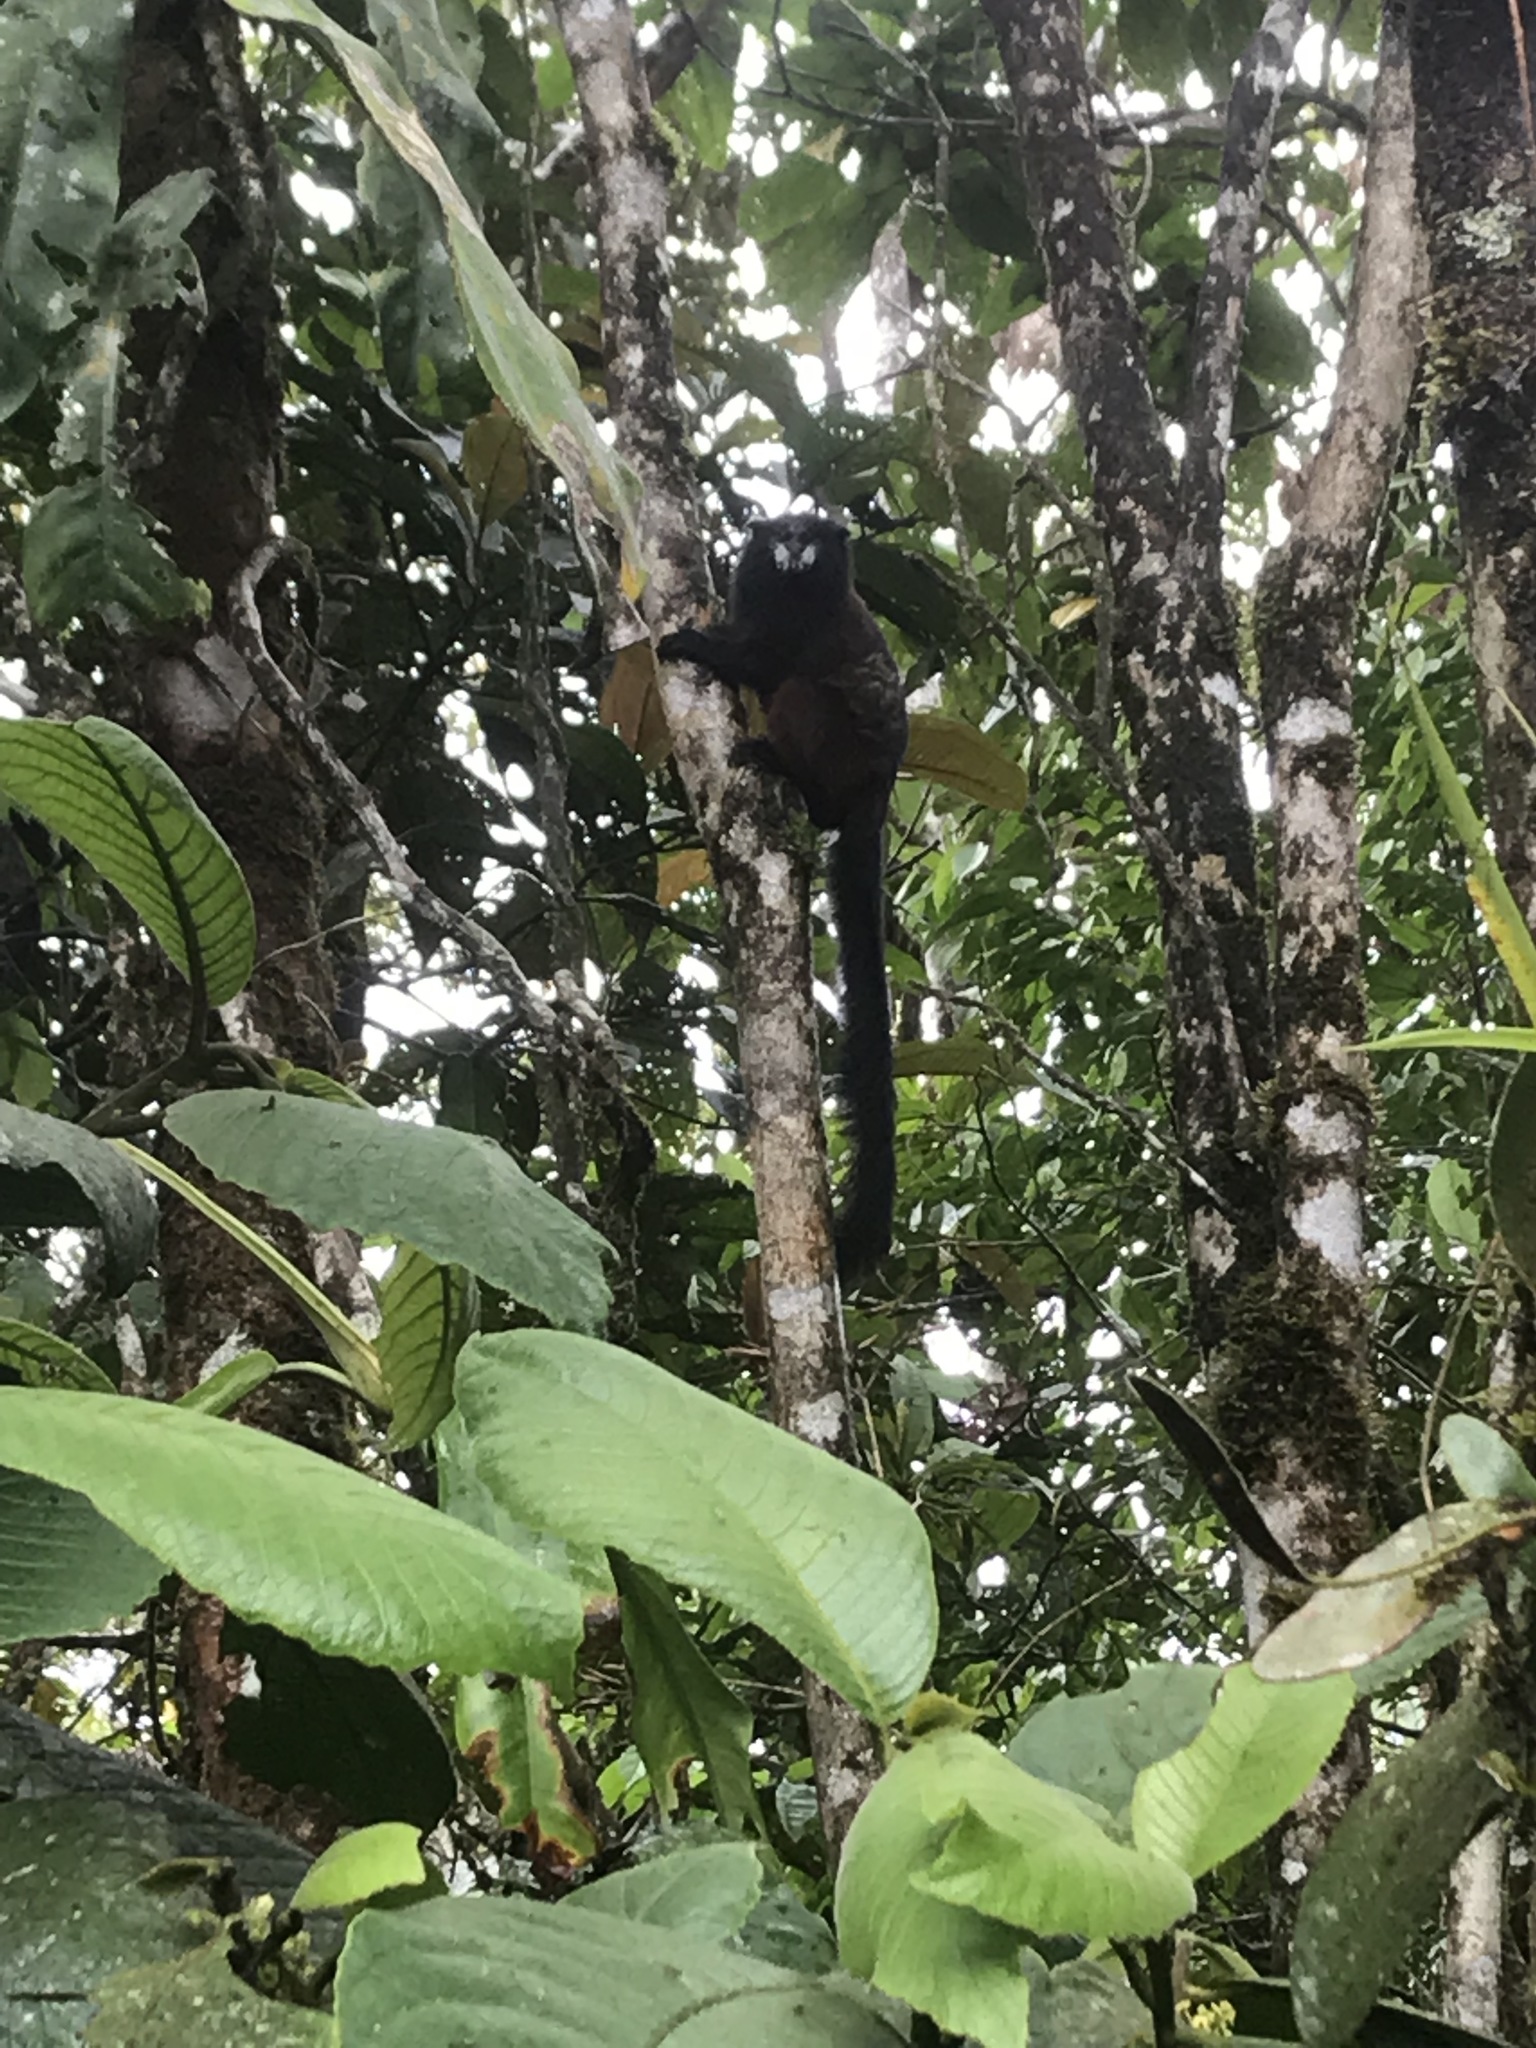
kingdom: Animalia
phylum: Chordata
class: Mammalia
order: Primates
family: Callitrichidae
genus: Leontocebus
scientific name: Leontocebus lagonotus
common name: Red-mantled saddle-back tamarin
